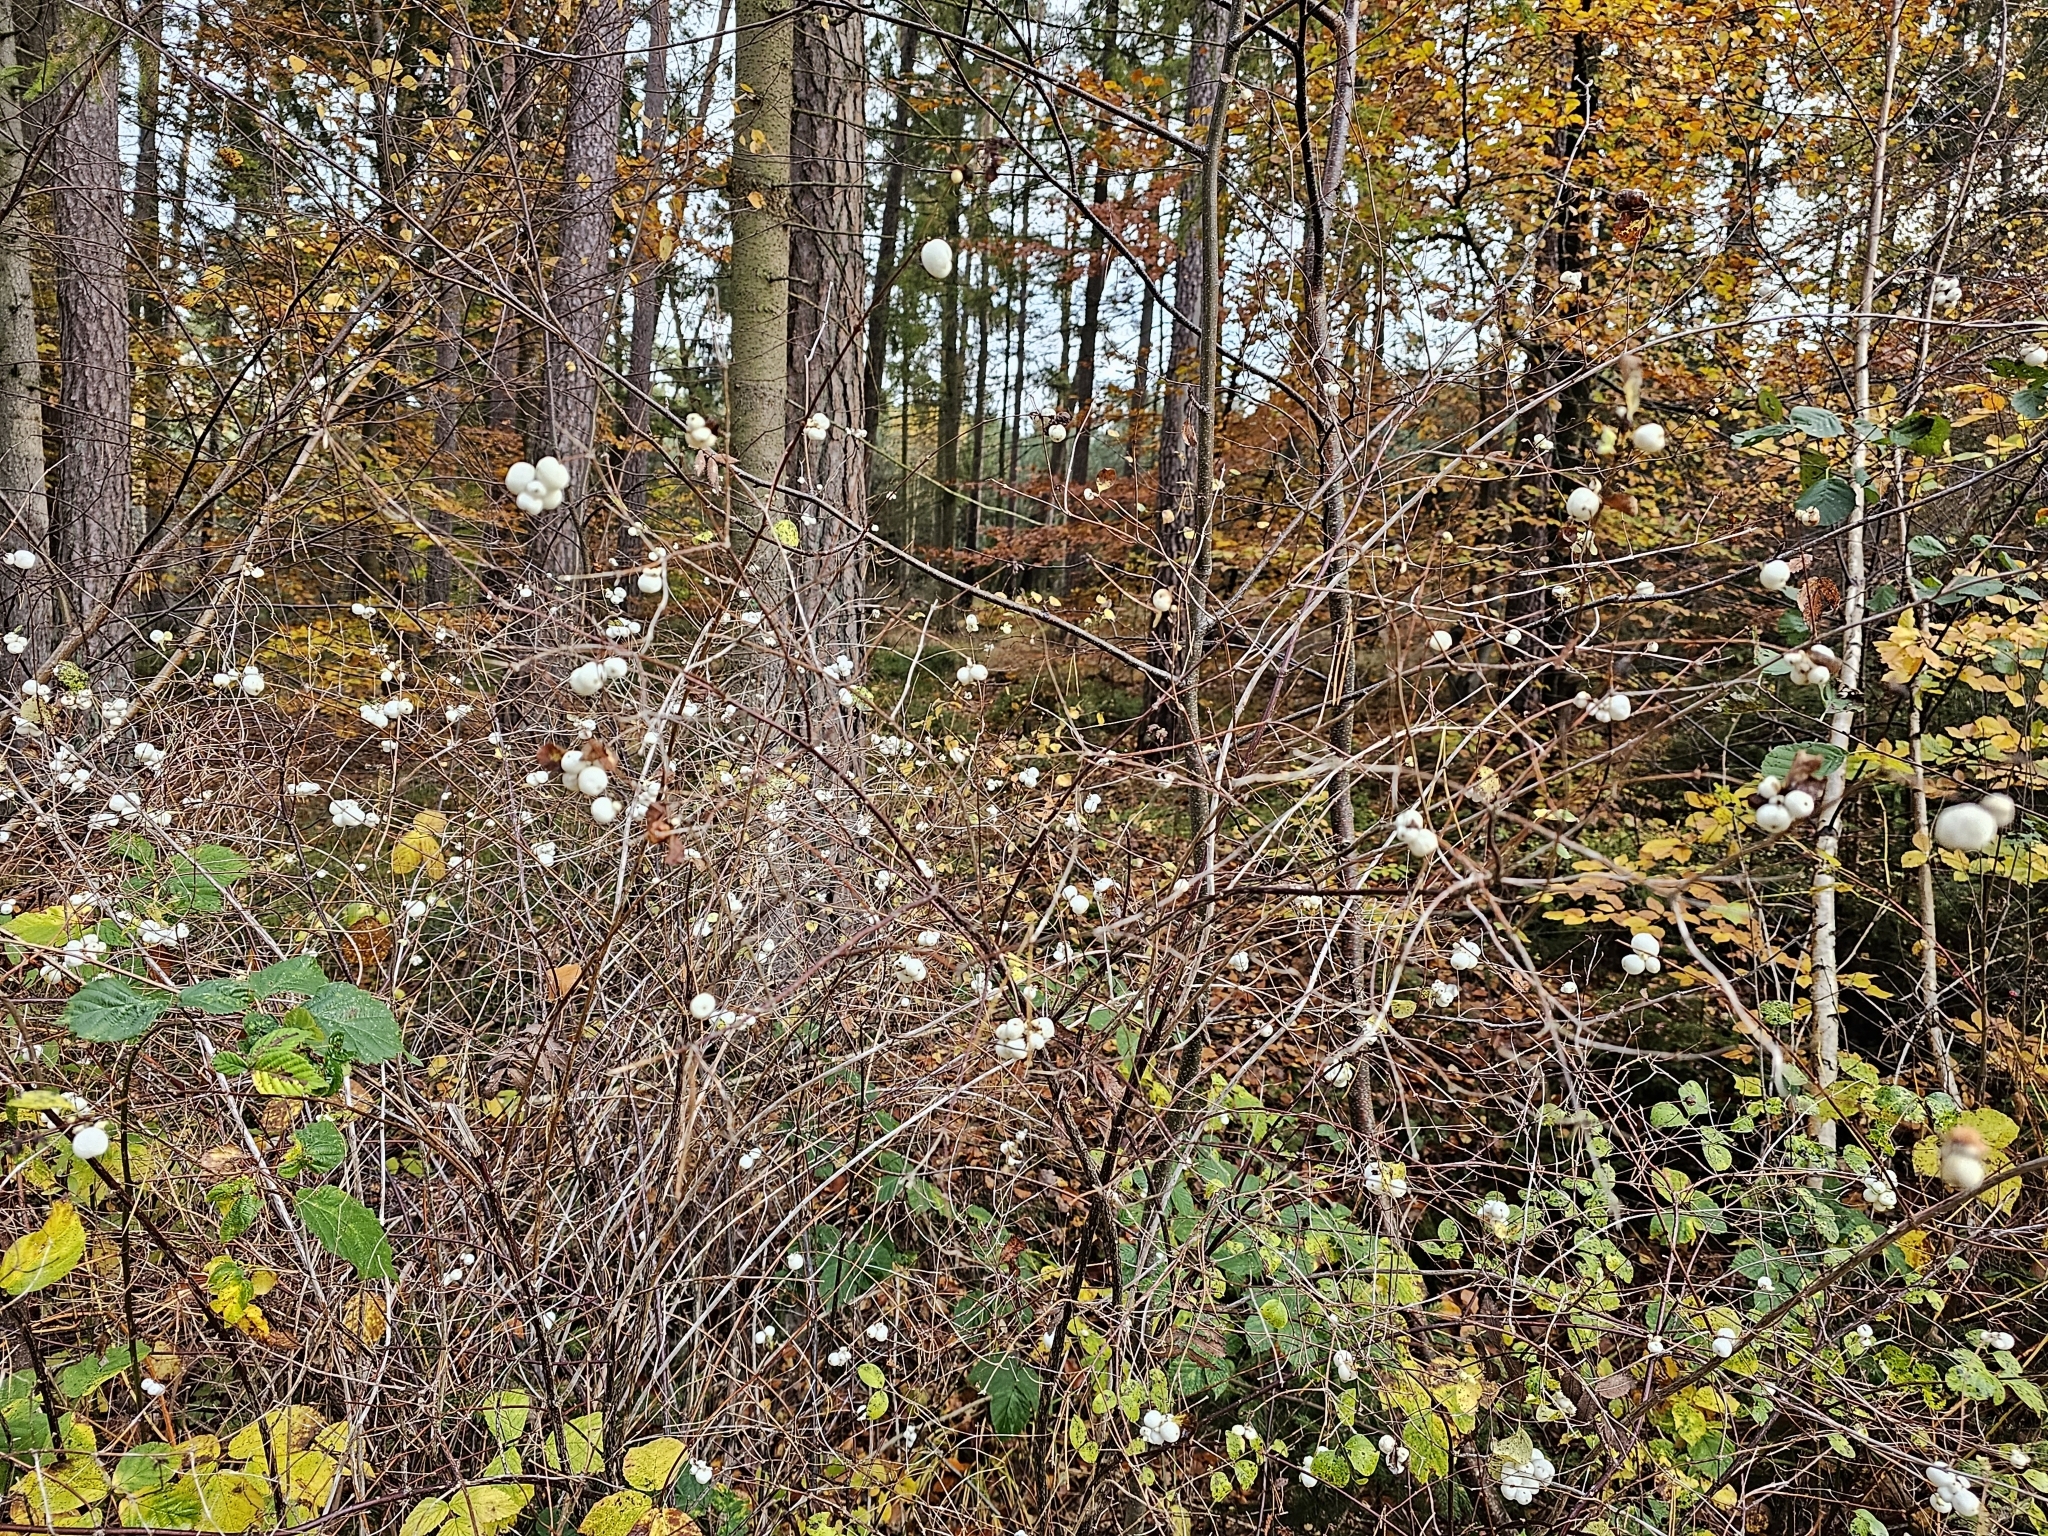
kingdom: Plantae
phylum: Tracheophyta
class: Magnoliopsida
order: Dipsacales
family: Caprifoliaceae
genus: Symphoricarpos
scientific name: Symphoricarpos albus
